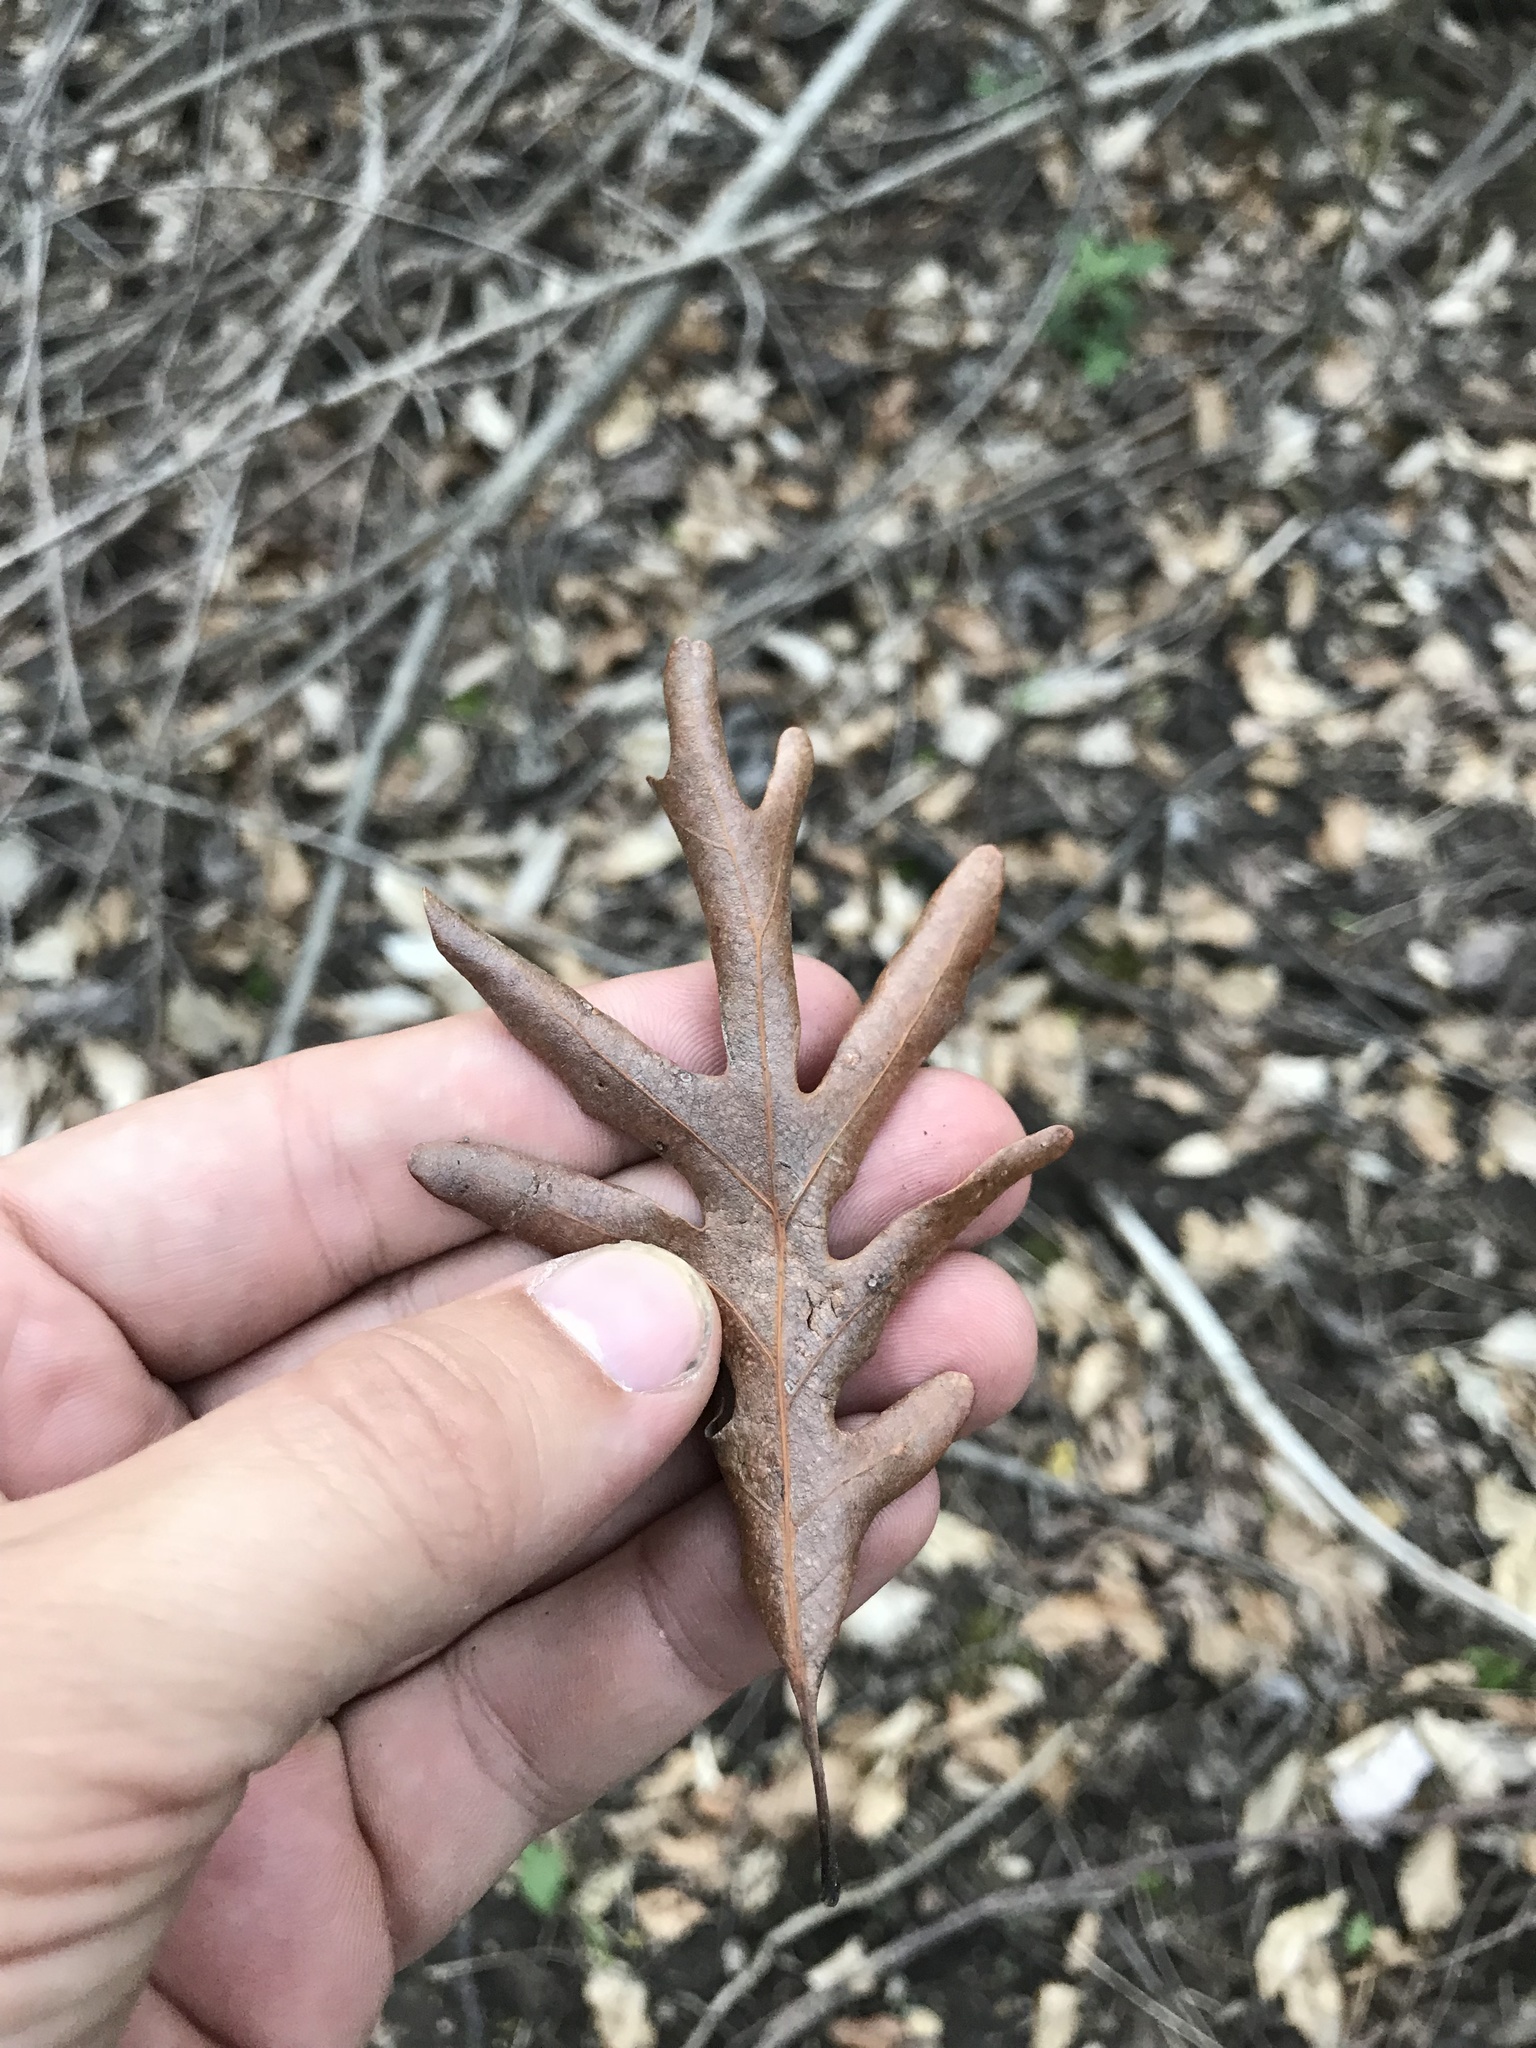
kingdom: Plantae
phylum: Tracheophyta
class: Magnoliopsida
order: Fagales
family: Fagaceae
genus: Quercus
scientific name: Quercus alba
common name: White oak
